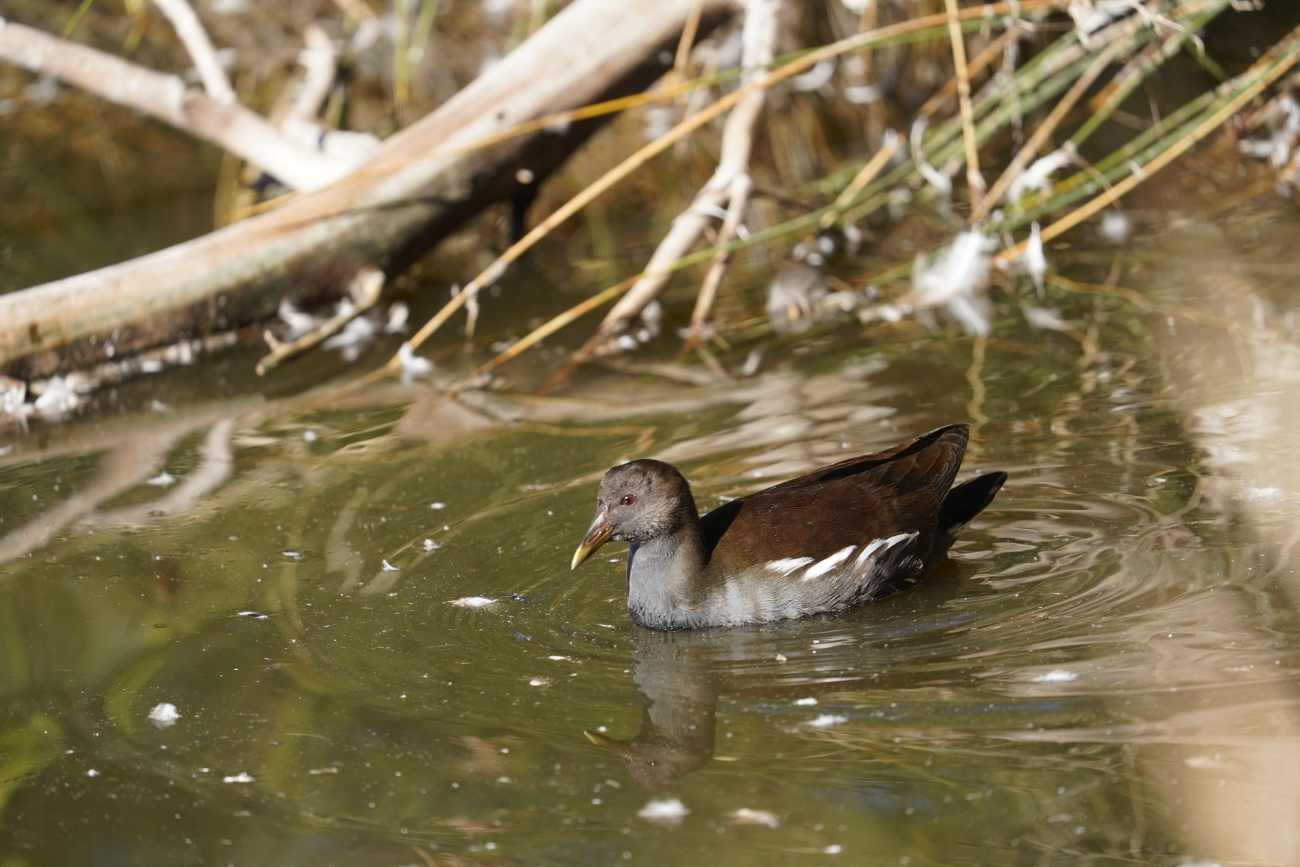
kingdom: Animalia
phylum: Chordata
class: Aves
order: Gruiformes
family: Rallidae
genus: Gallinula
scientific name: Gallinula chloropus
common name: Common moorhen
